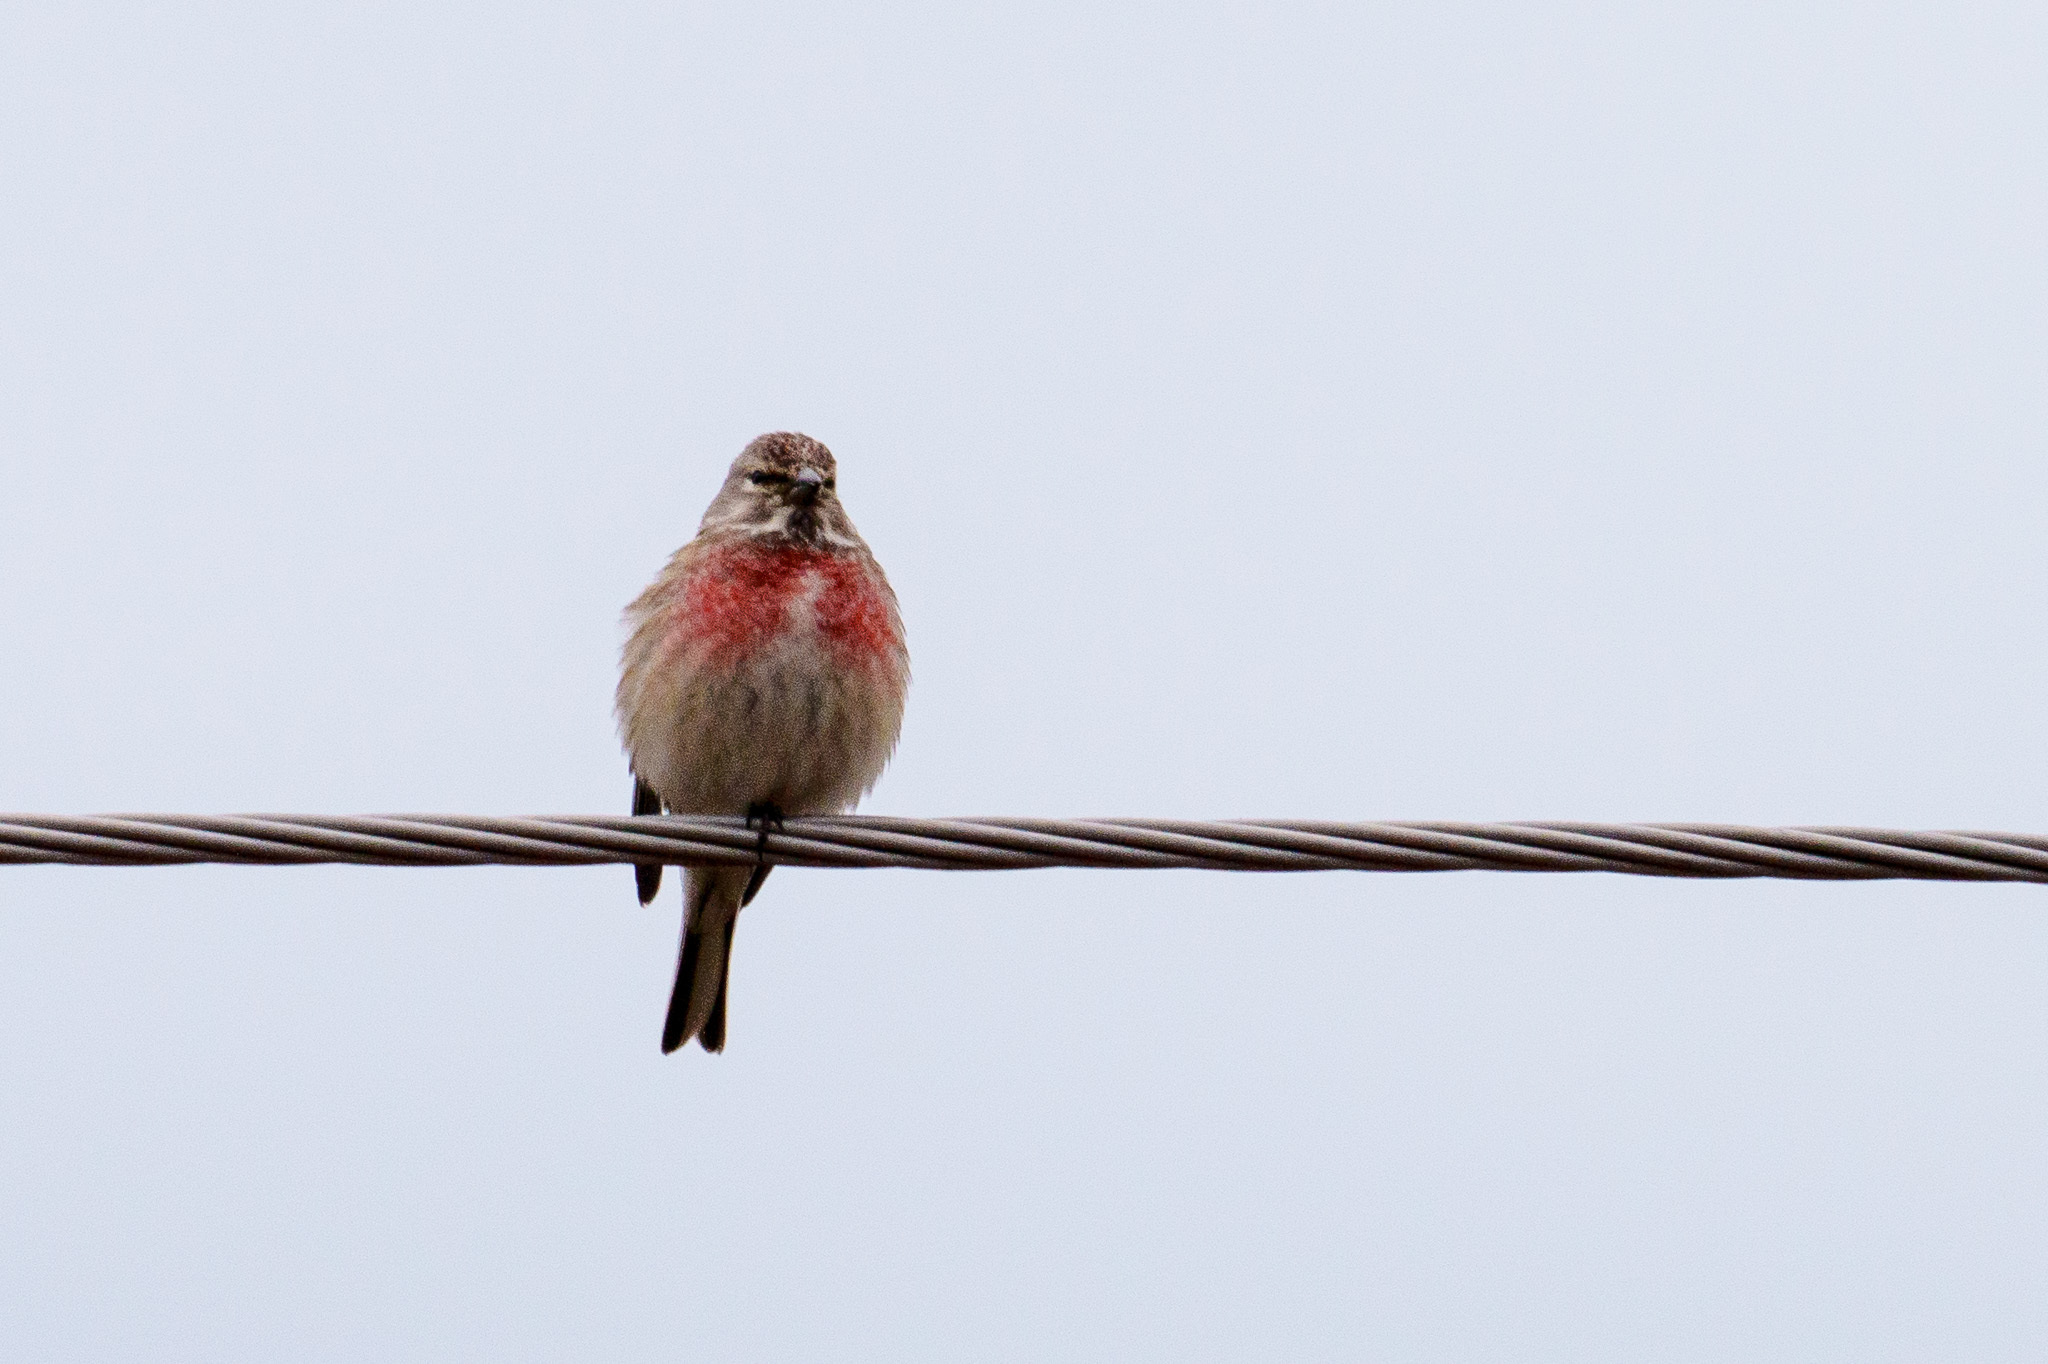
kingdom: Animalia
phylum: Chordata
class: Aves
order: Passeriformes
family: Fringillidae
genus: Linaria
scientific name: Linaria cannabina
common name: Common linnet
